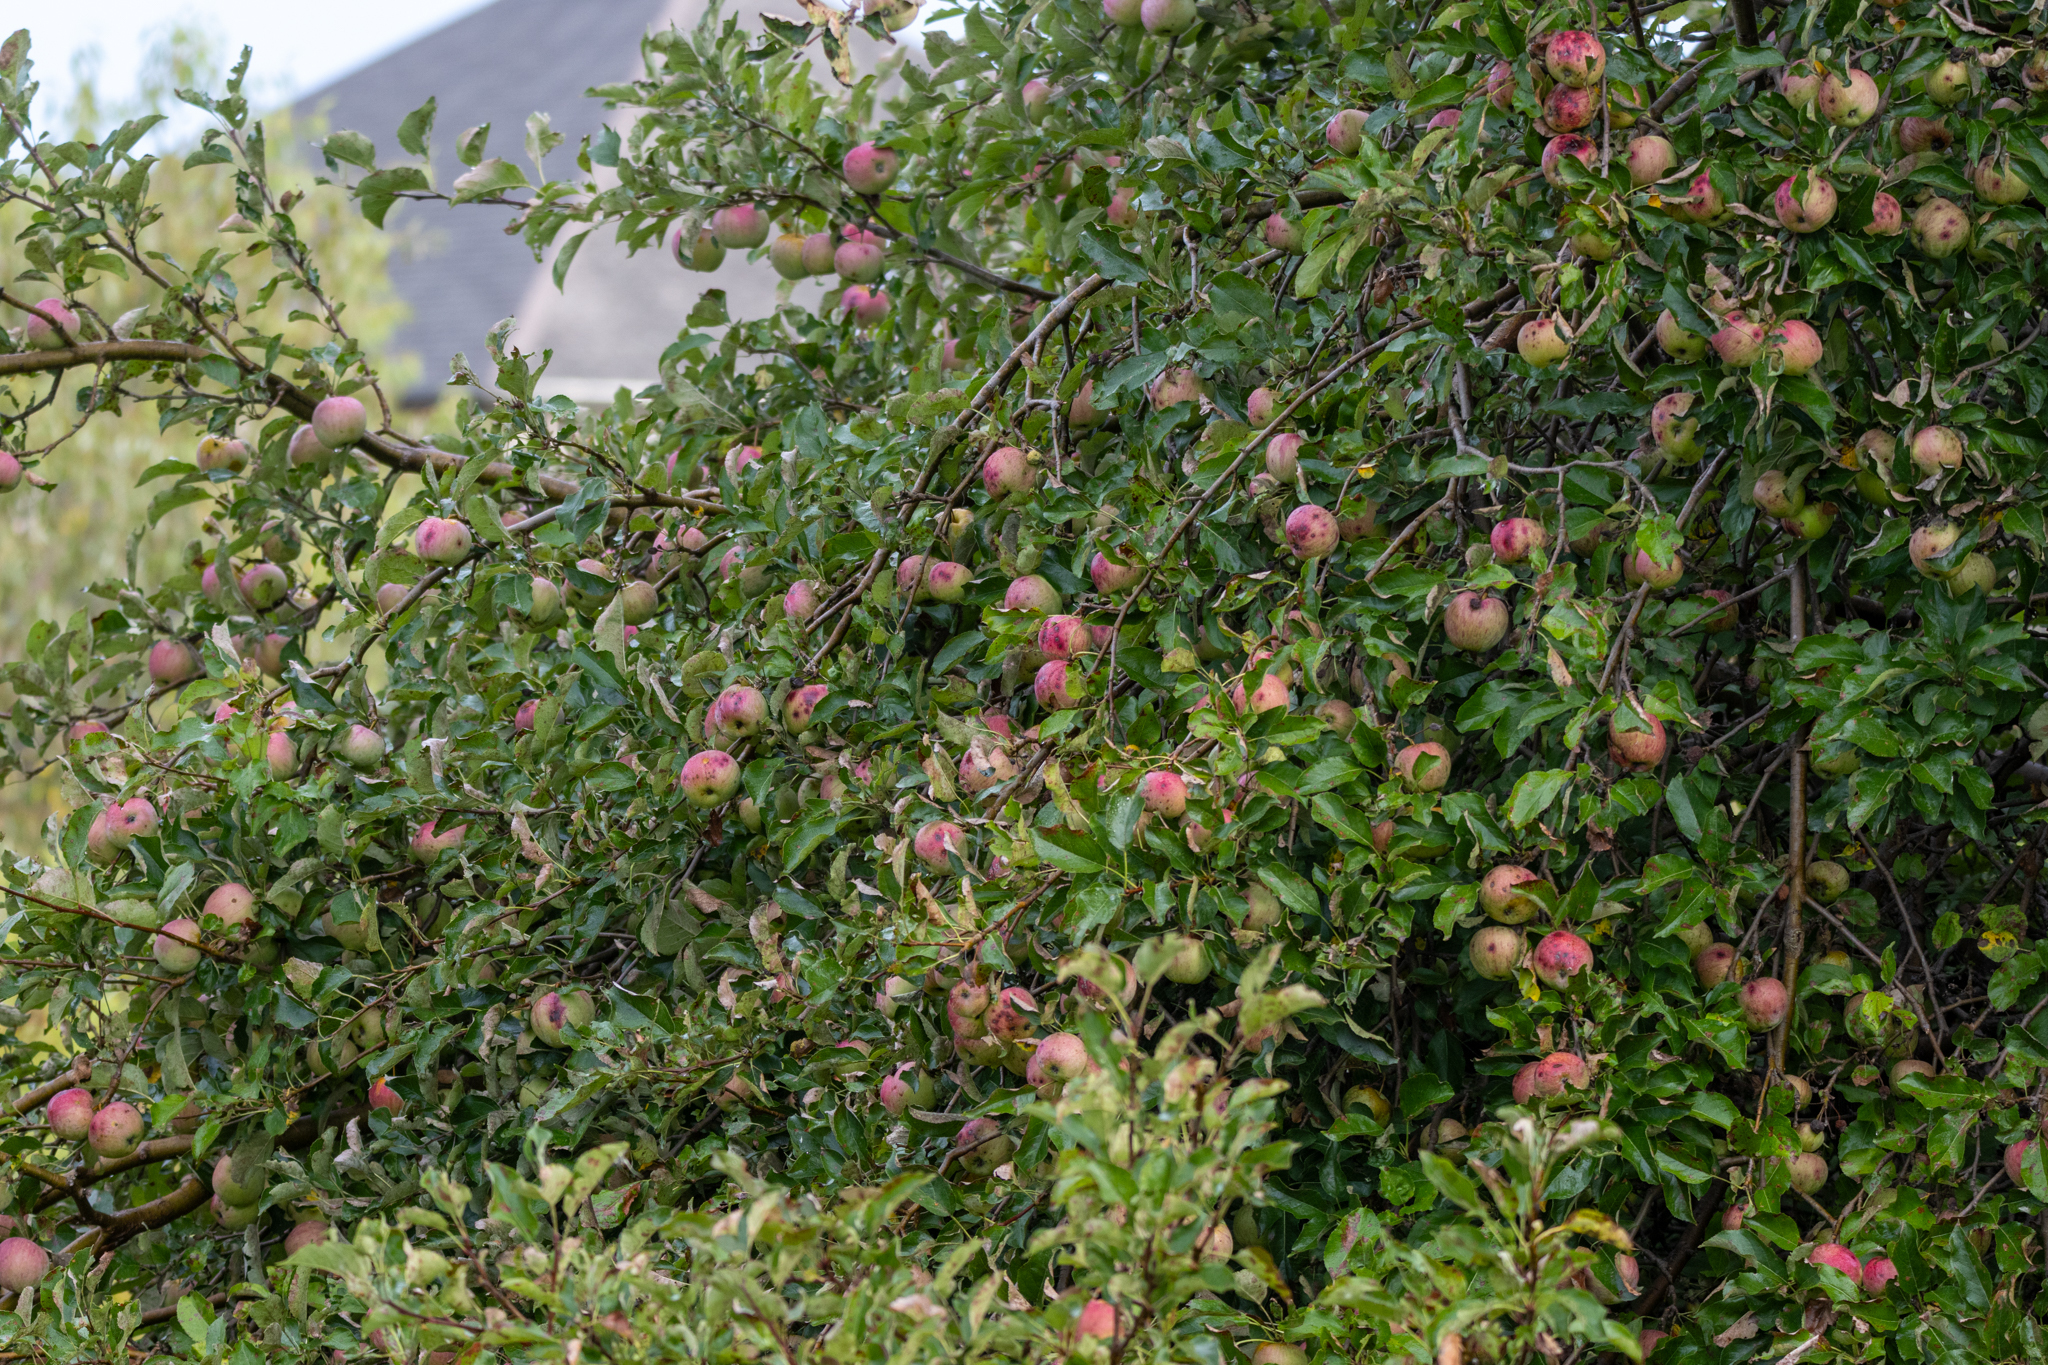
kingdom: Plantae
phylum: Tracheophyta
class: Magnoliopsida
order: Rosales
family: Rosaceae
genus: Malus
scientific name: Malus domestica
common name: Apple
